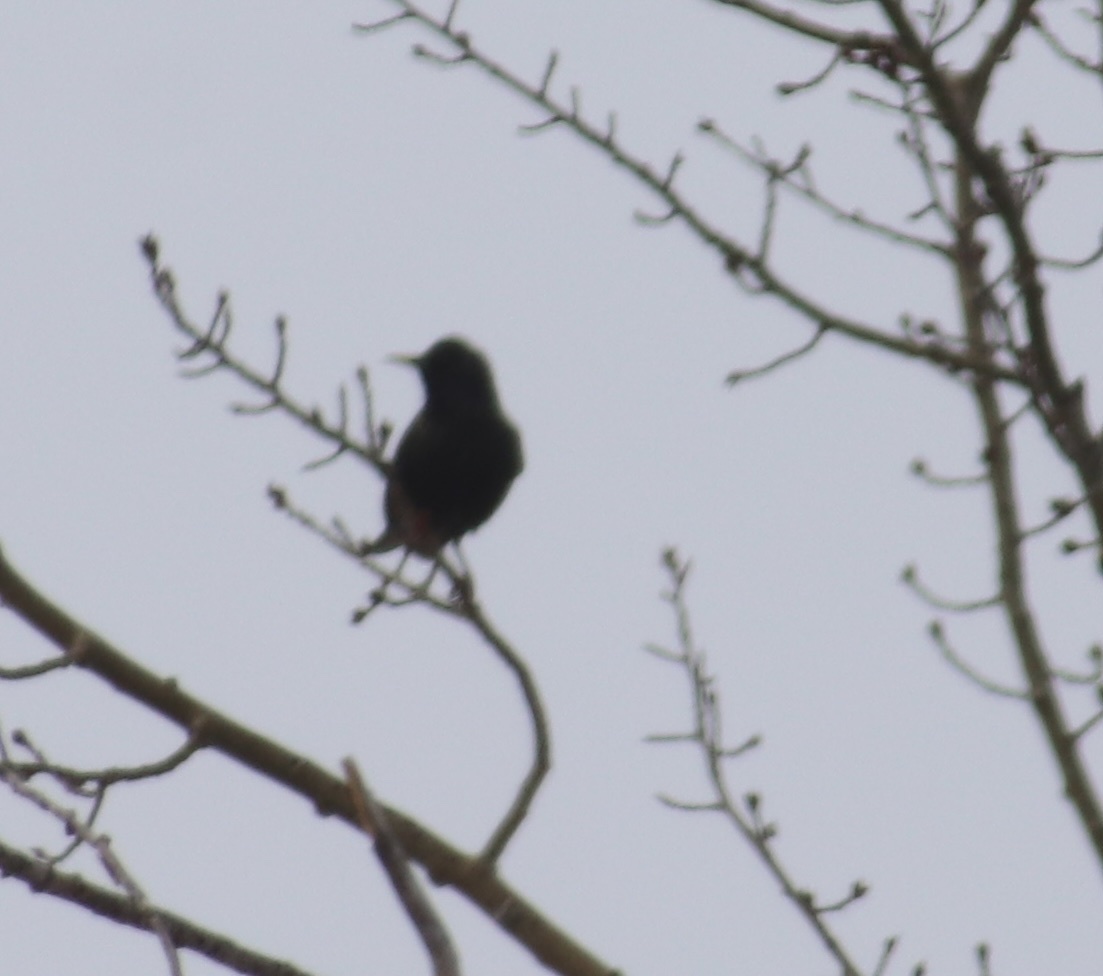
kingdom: Animalia
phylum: Chordata
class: Aves
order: Passeriformes
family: Sturnidae
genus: Sturnus
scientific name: Sturnus vulgaris
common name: Common starling
